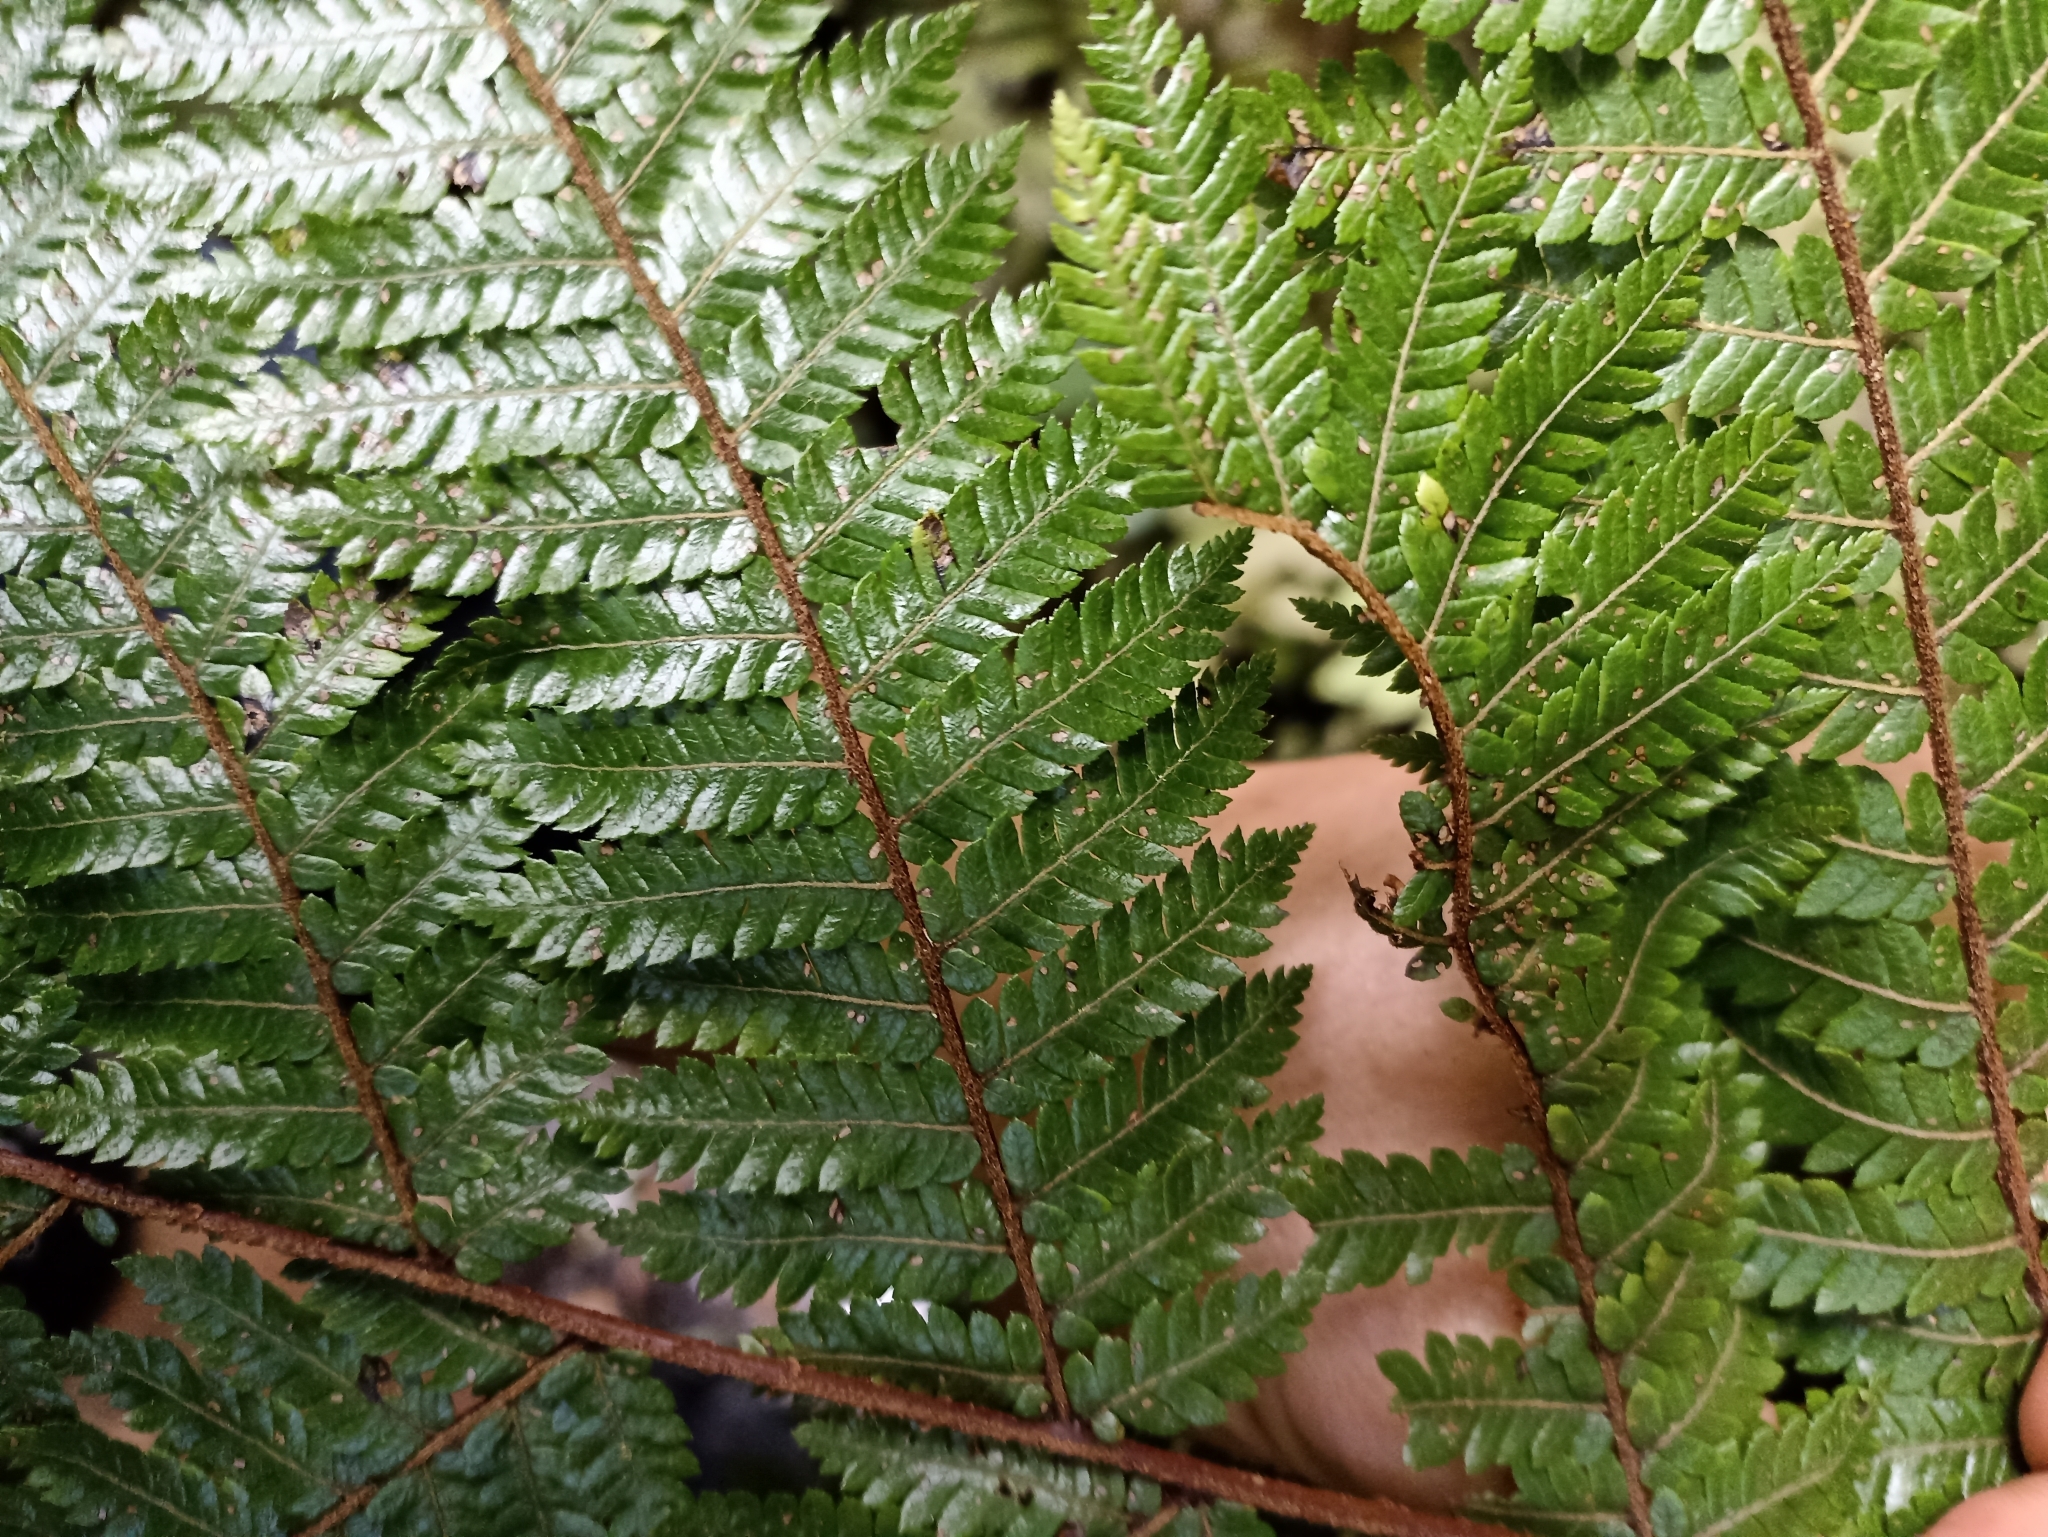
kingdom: Plantae
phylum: Tracheophyta
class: Polypodiopsida
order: Cyatheales
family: Cyatheaceae
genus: Alsophila
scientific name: Alsophila smithii
